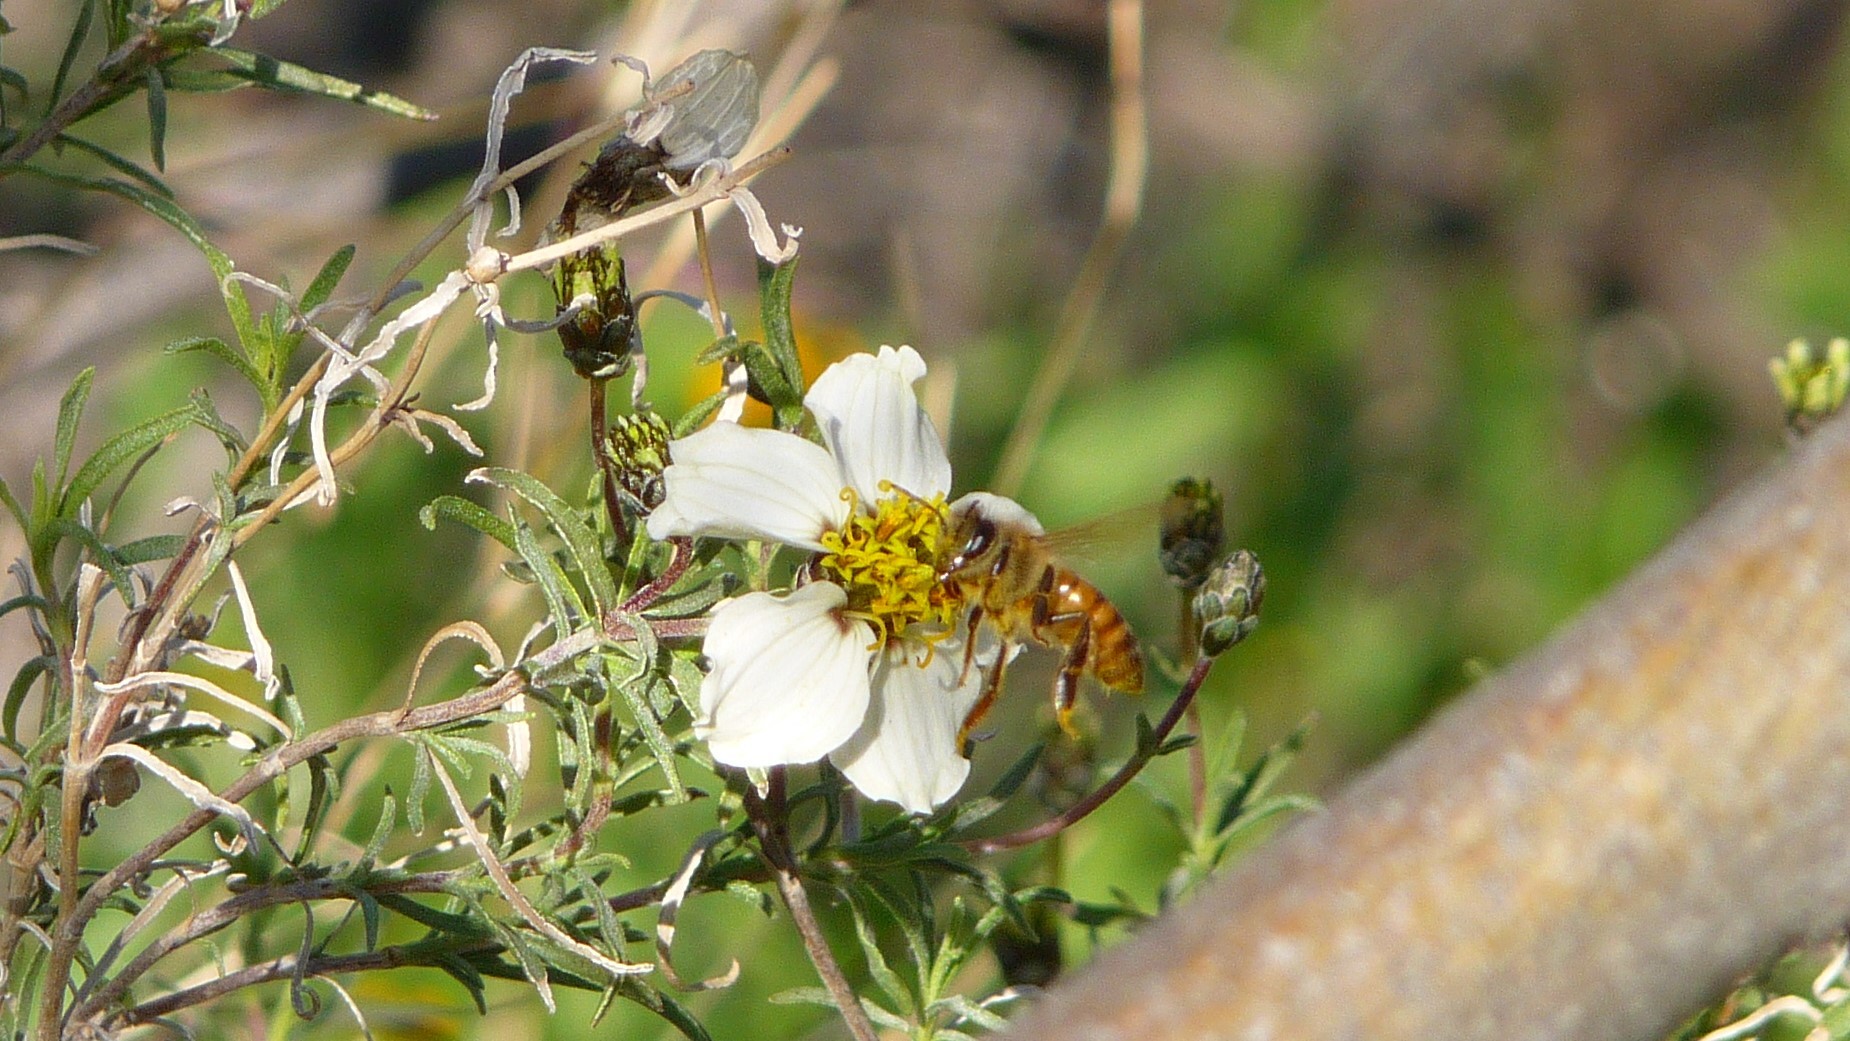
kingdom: Animalia
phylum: Arthropoda
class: Insecta
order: Hymenoptera
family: Apidae
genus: Apis
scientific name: Apis mellifera
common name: Honey bee
